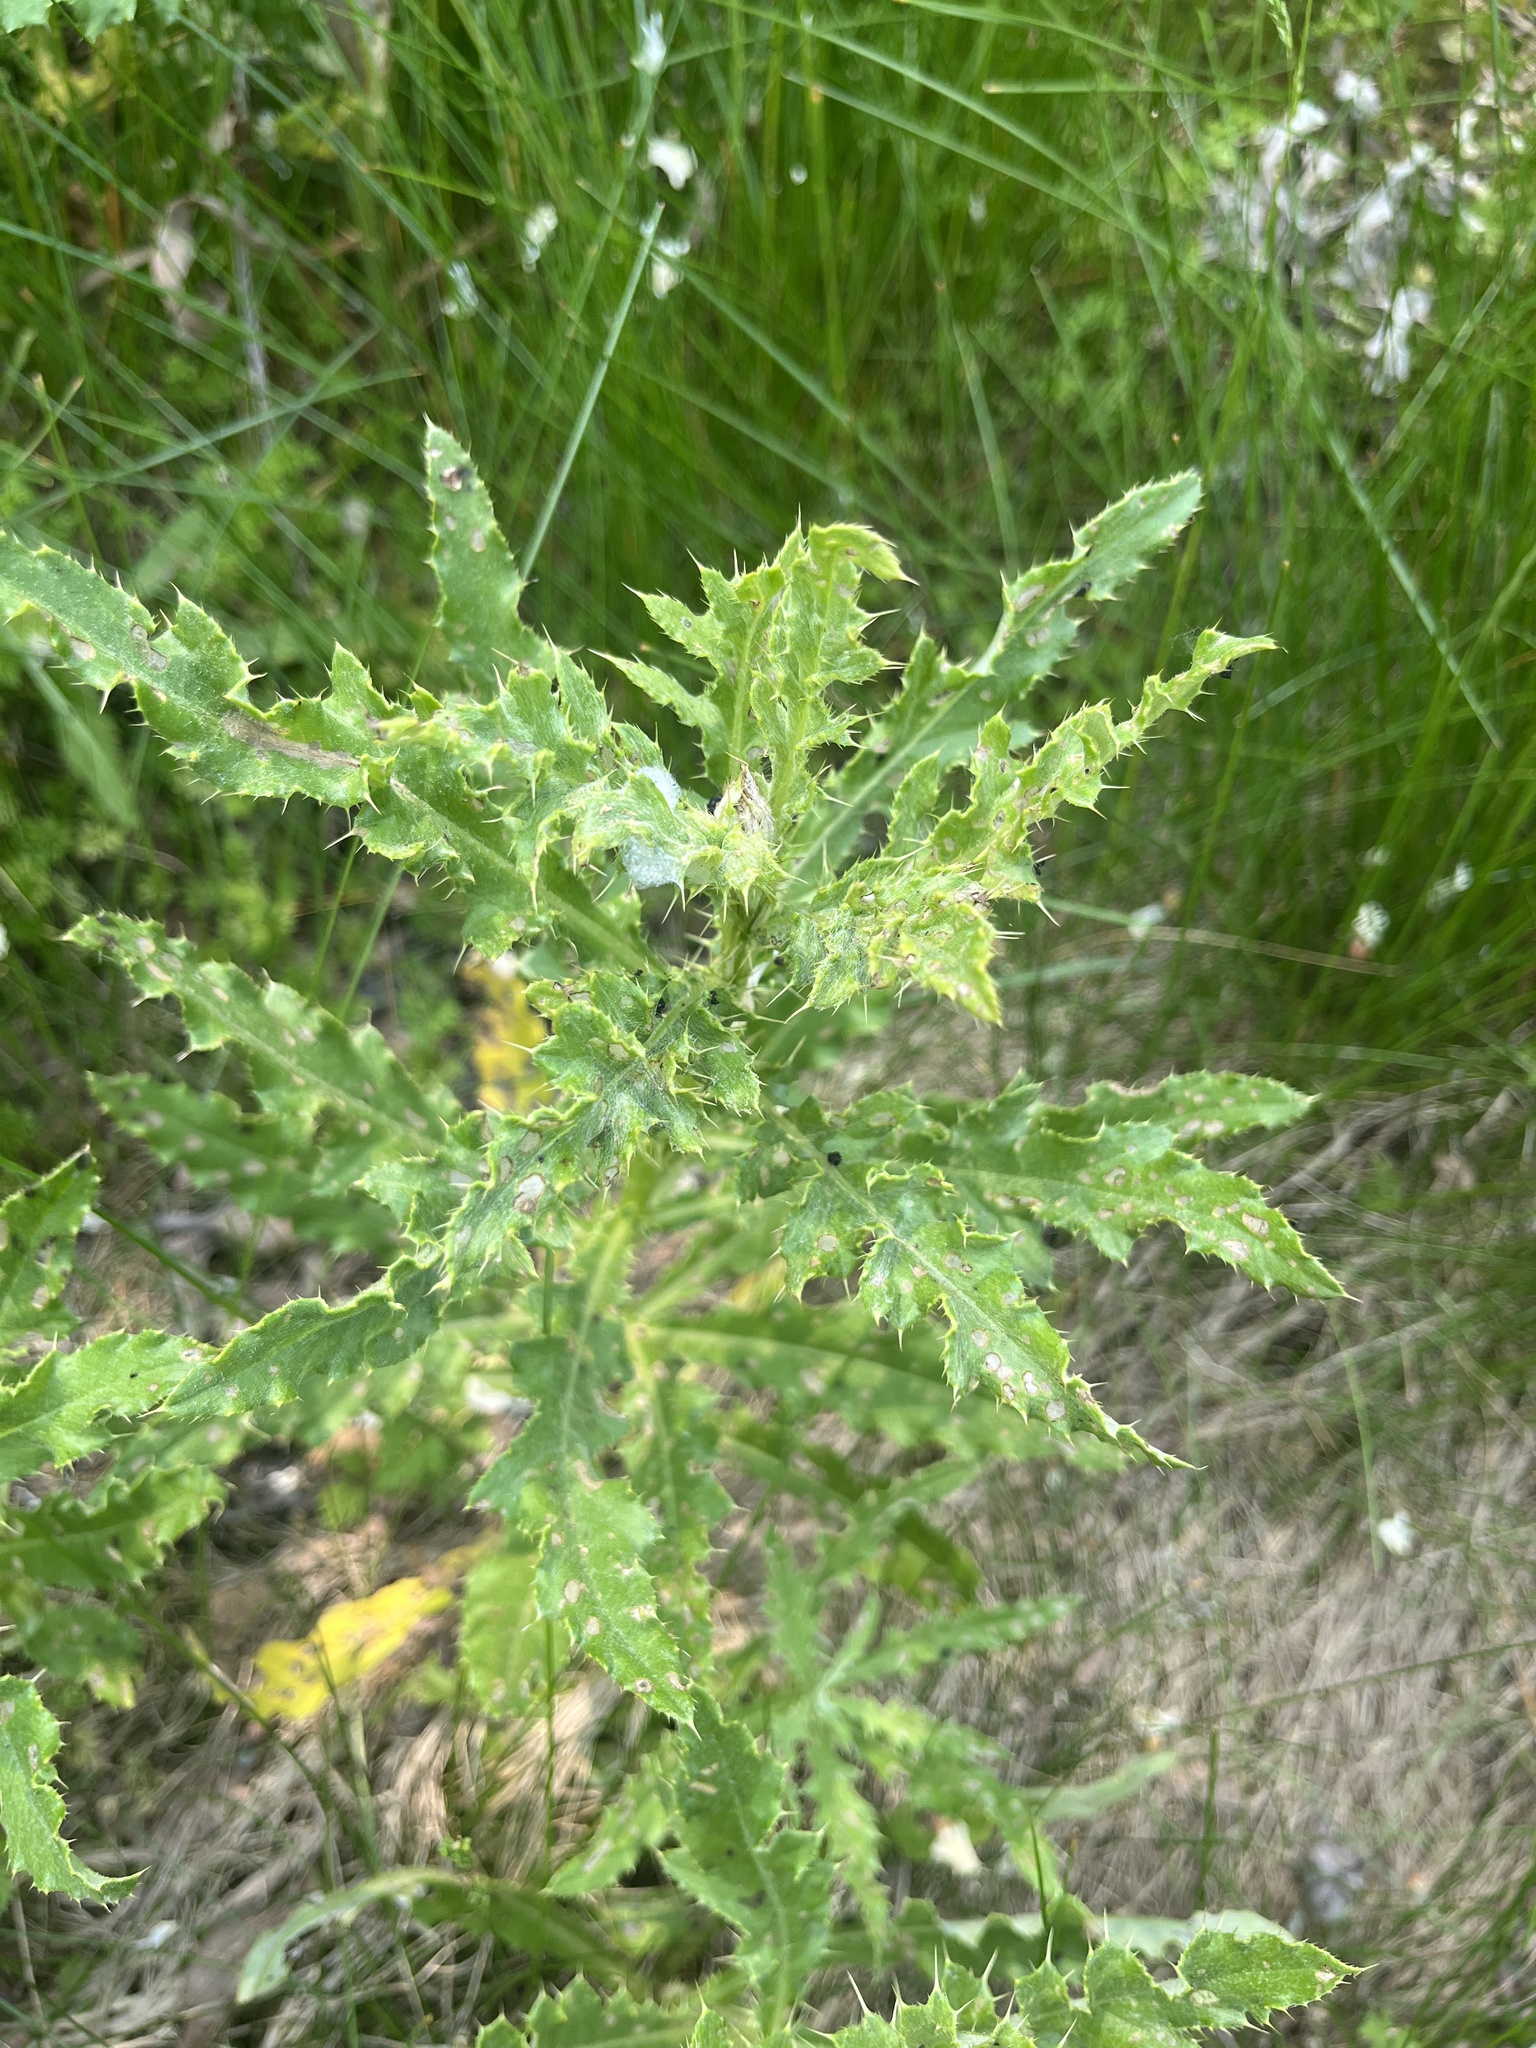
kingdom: Plantae
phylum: Tracheophyta
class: Magnoliopsida
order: Asterales
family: Asteraceae
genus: Cirsium
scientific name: Cirsium arvense
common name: Creeping thistle
